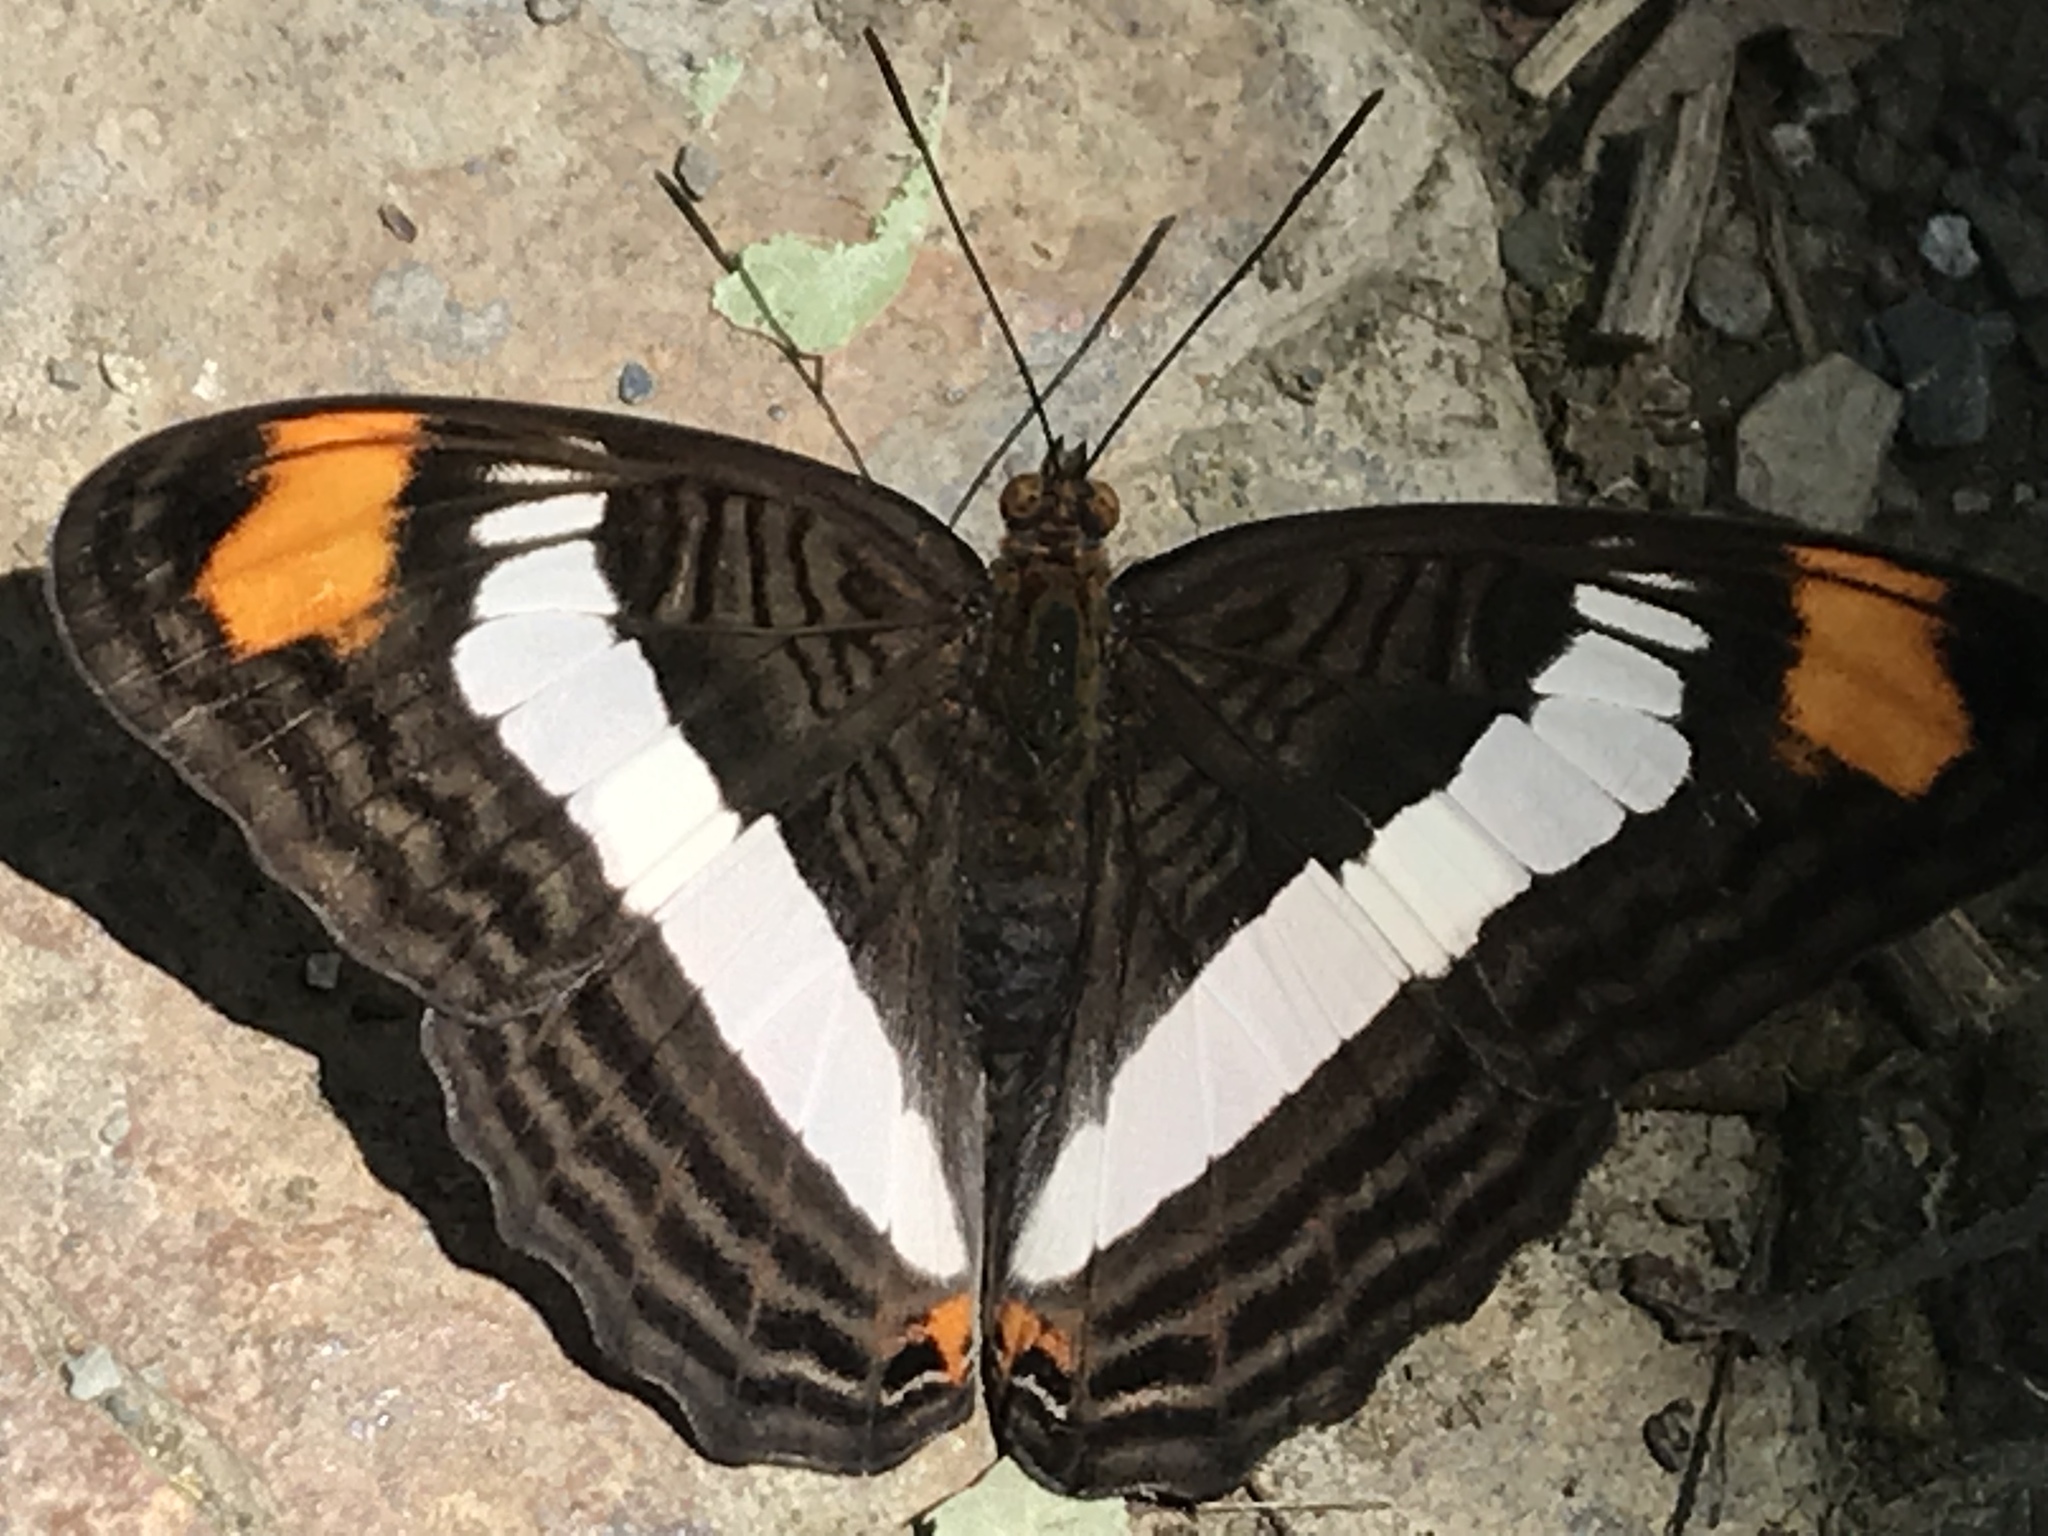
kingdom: Animalia
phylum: Arthropoda
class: Insecta
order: Lepidoptera
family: Nymphalidae
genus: Limenitis
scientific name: Limenitis Adelpha basiloides
